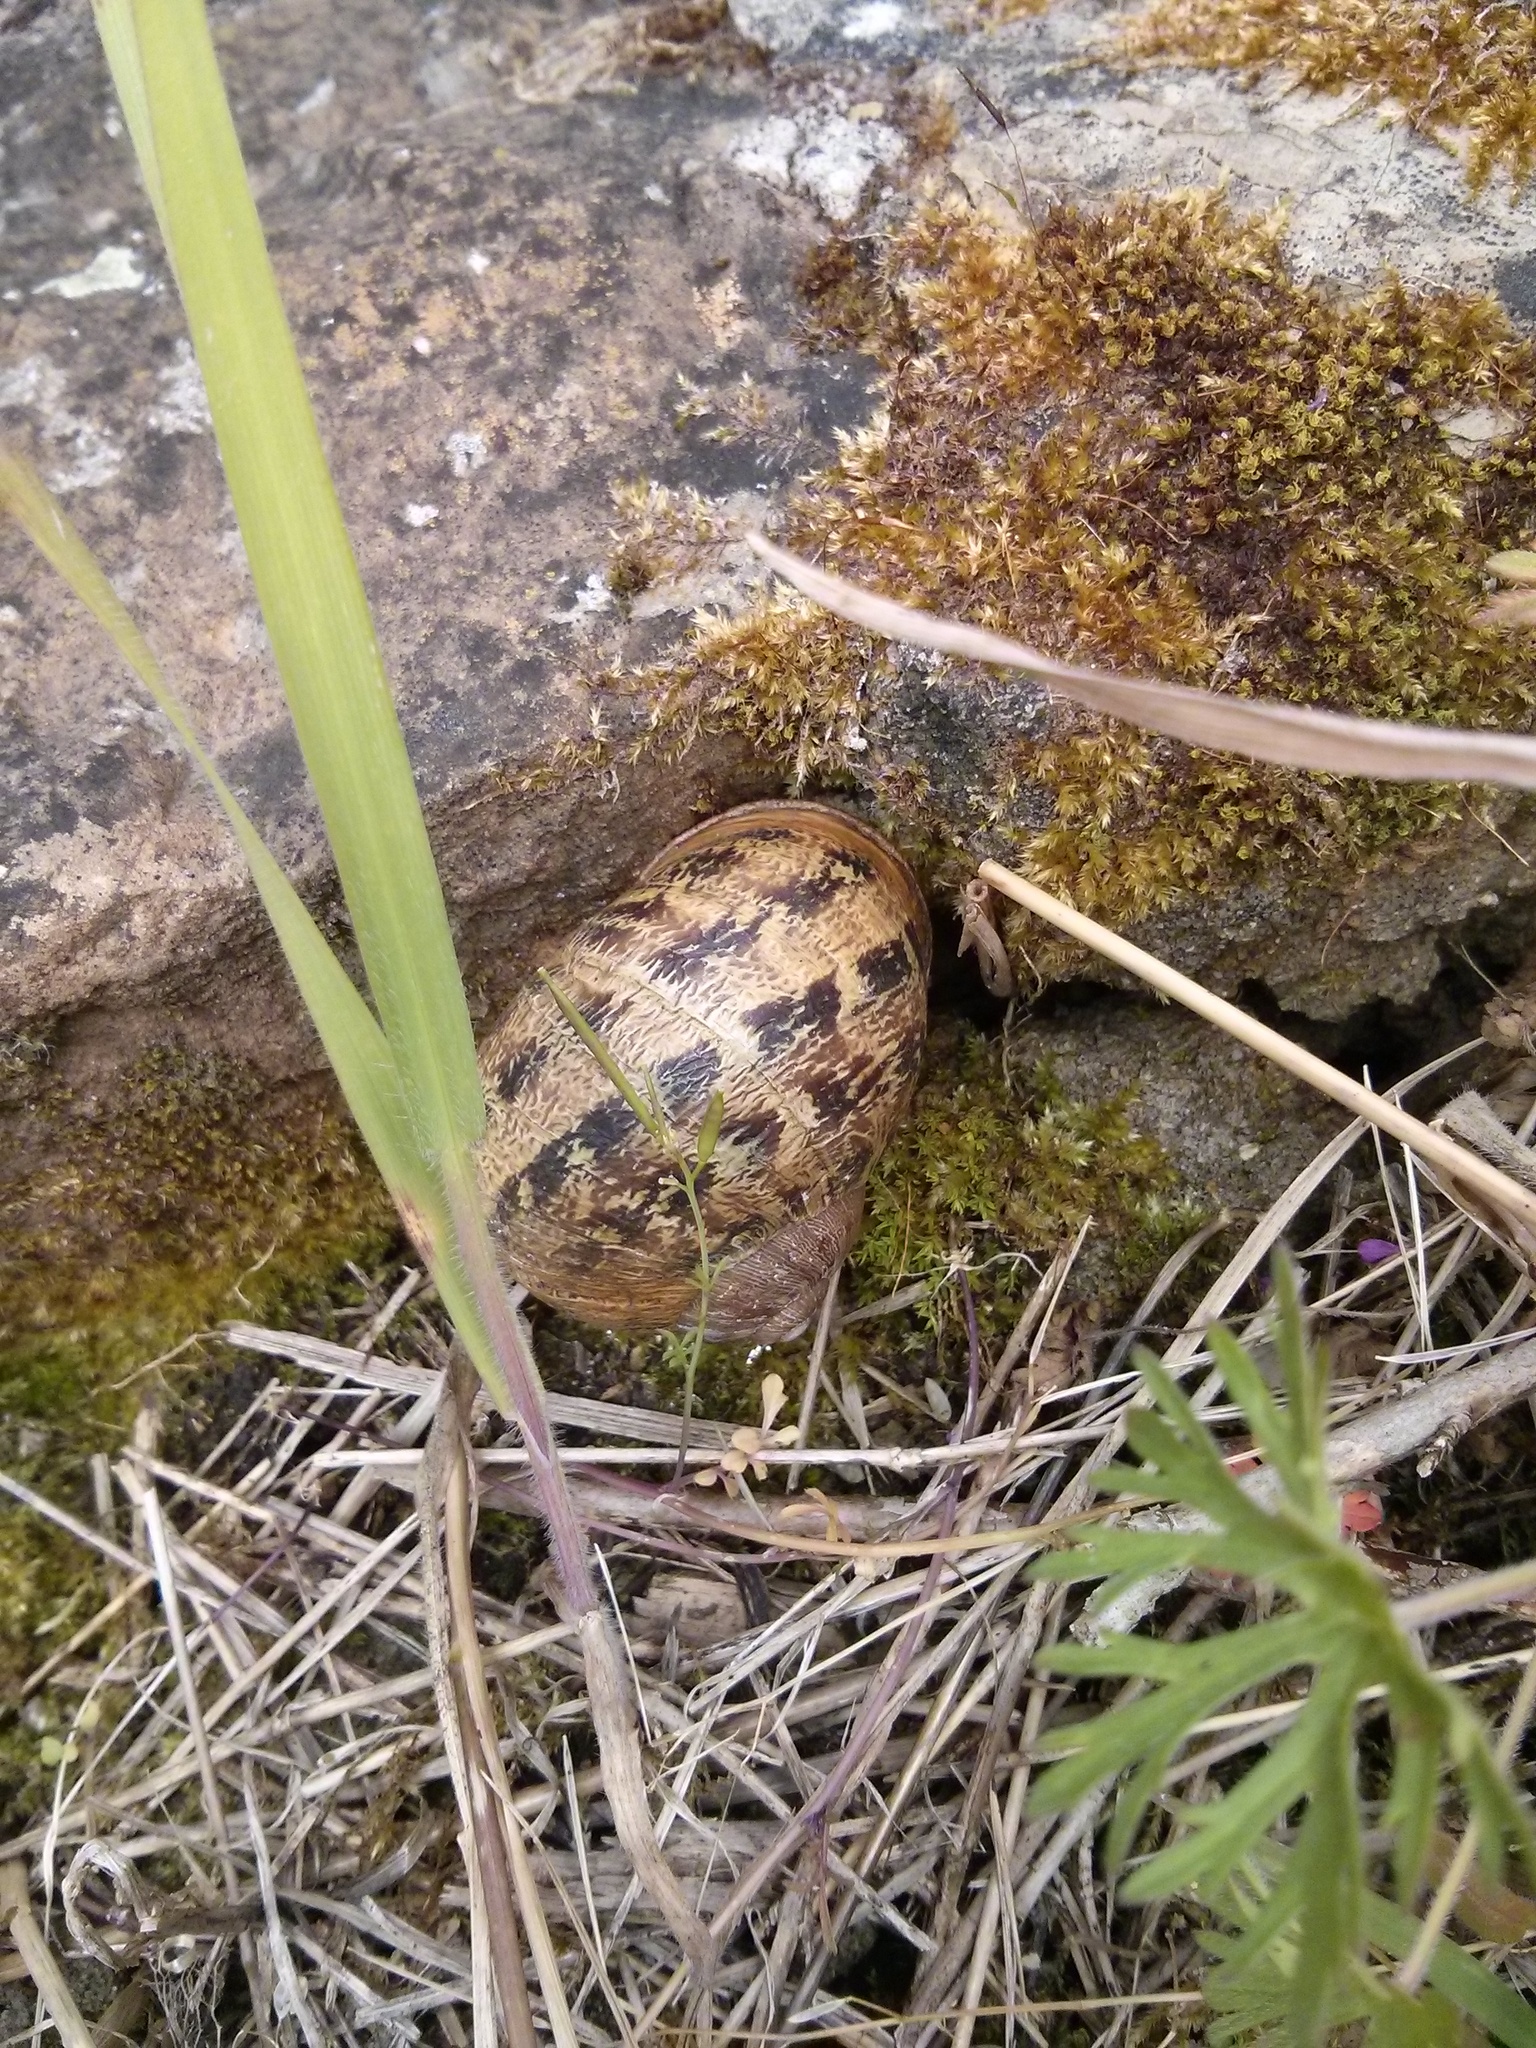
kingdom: Animalia
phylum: Mollusca
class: Gastropoda
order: Stylommatophora
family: Helicidae
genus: Cornu
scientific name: Cornu aspersum
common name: Brown garden snail
